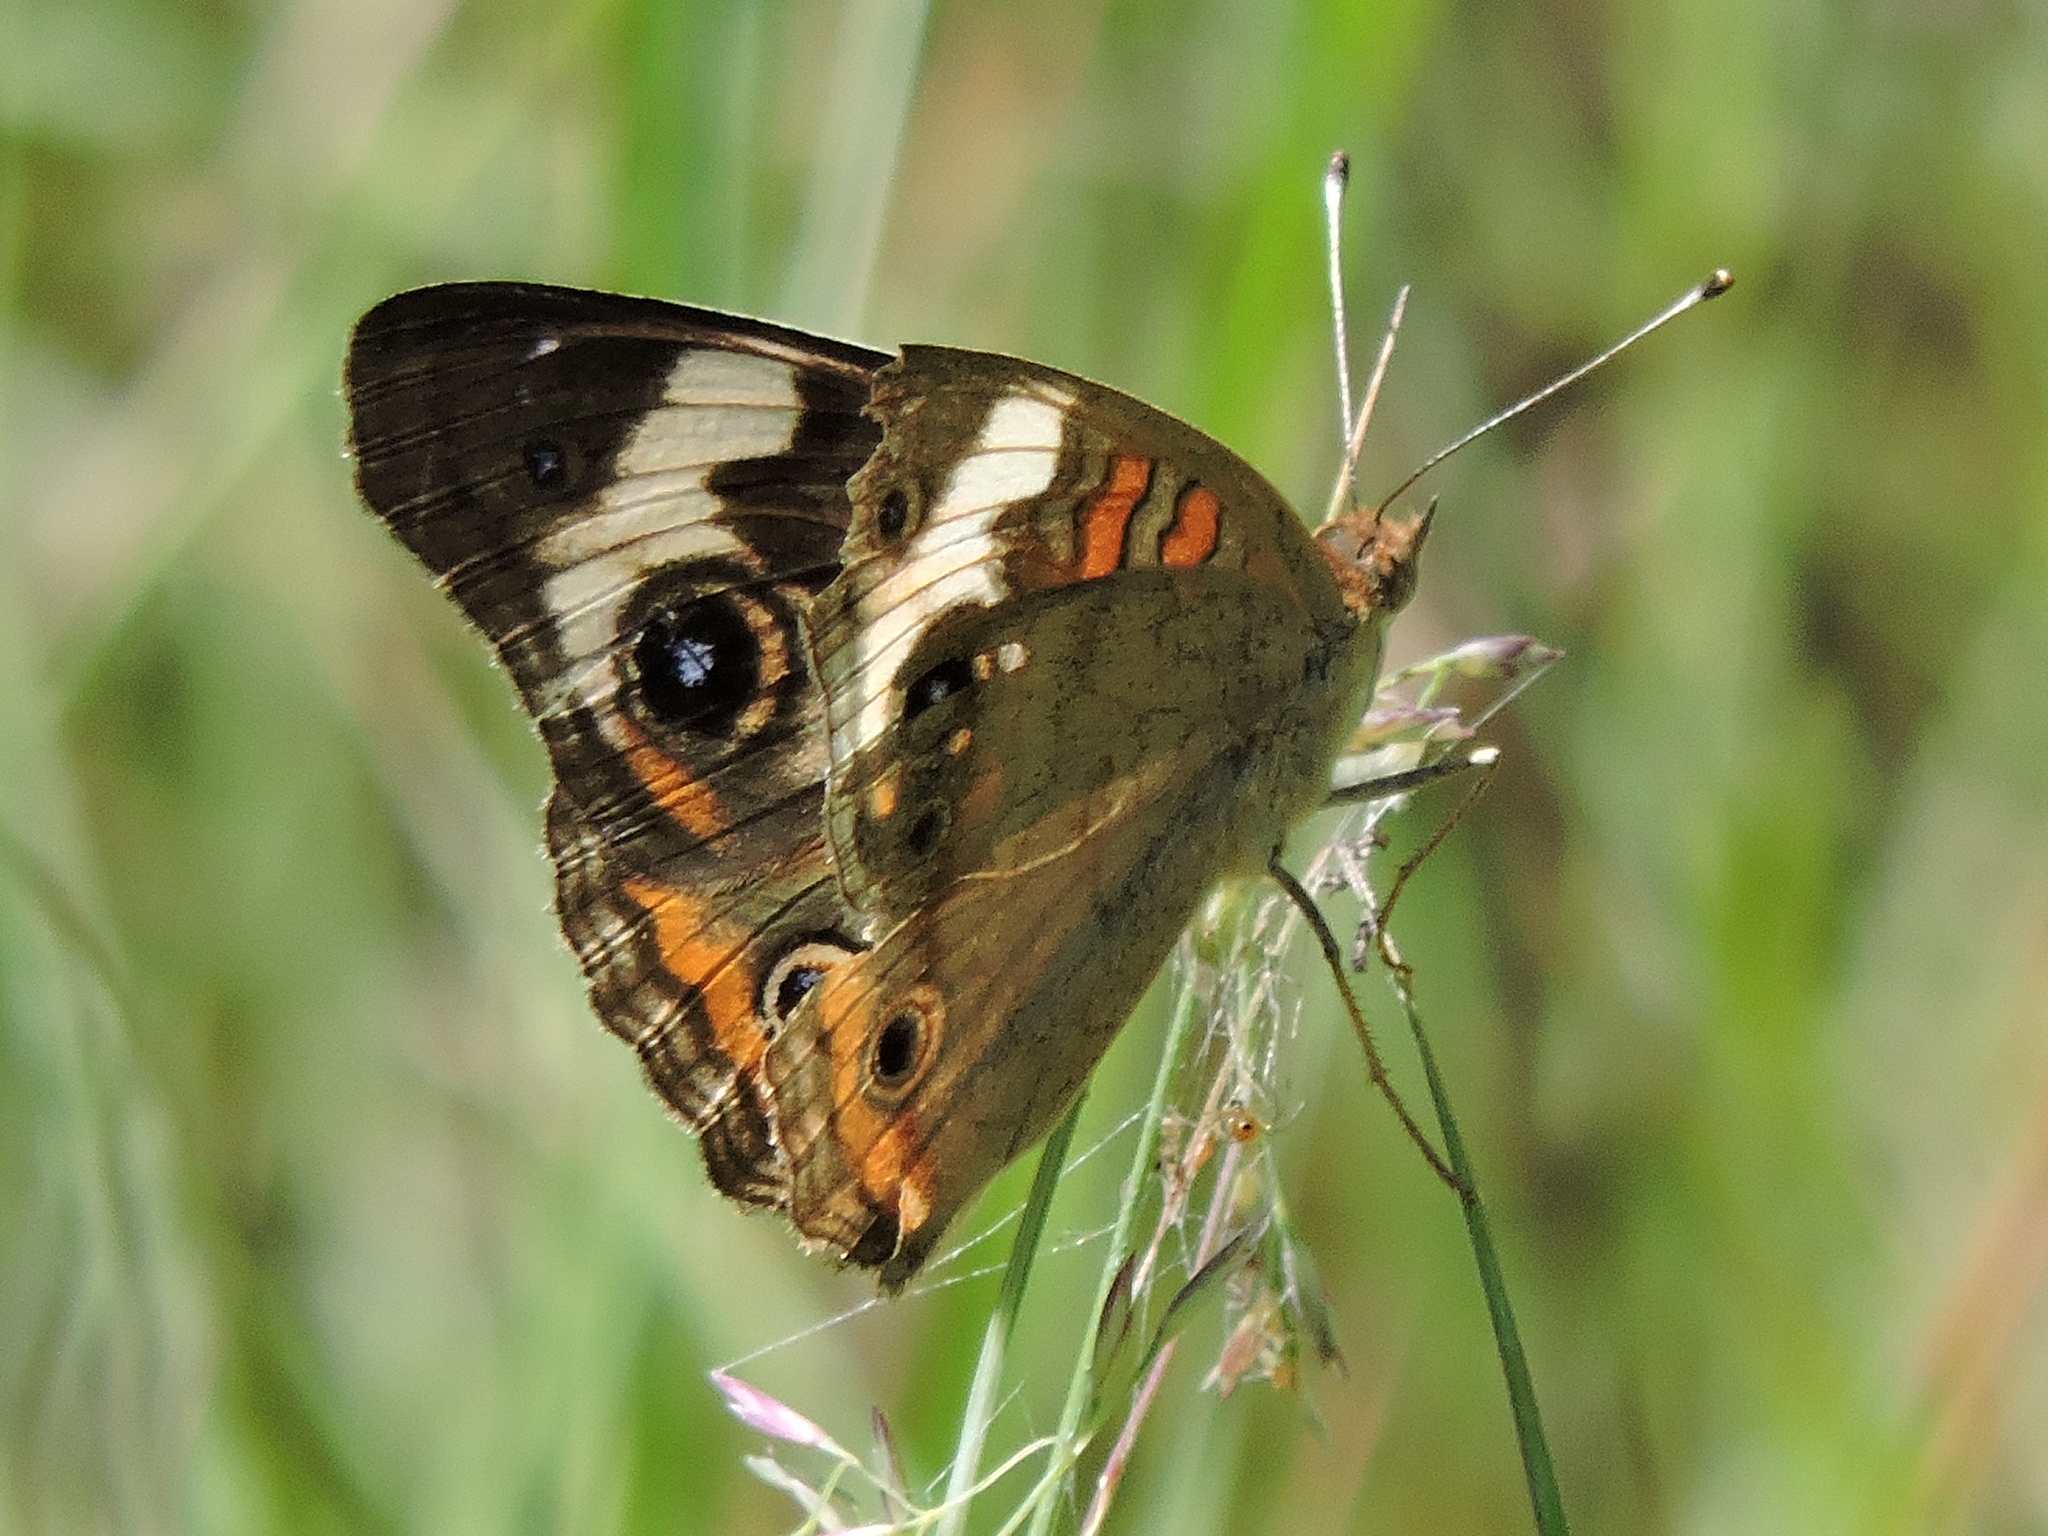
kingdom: Animalia
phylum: Arthropoda
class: Insecta
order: Lepidoptera
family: Nymphalidae
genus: Junonia
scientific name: Junonia coenia
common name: Common buckeye
